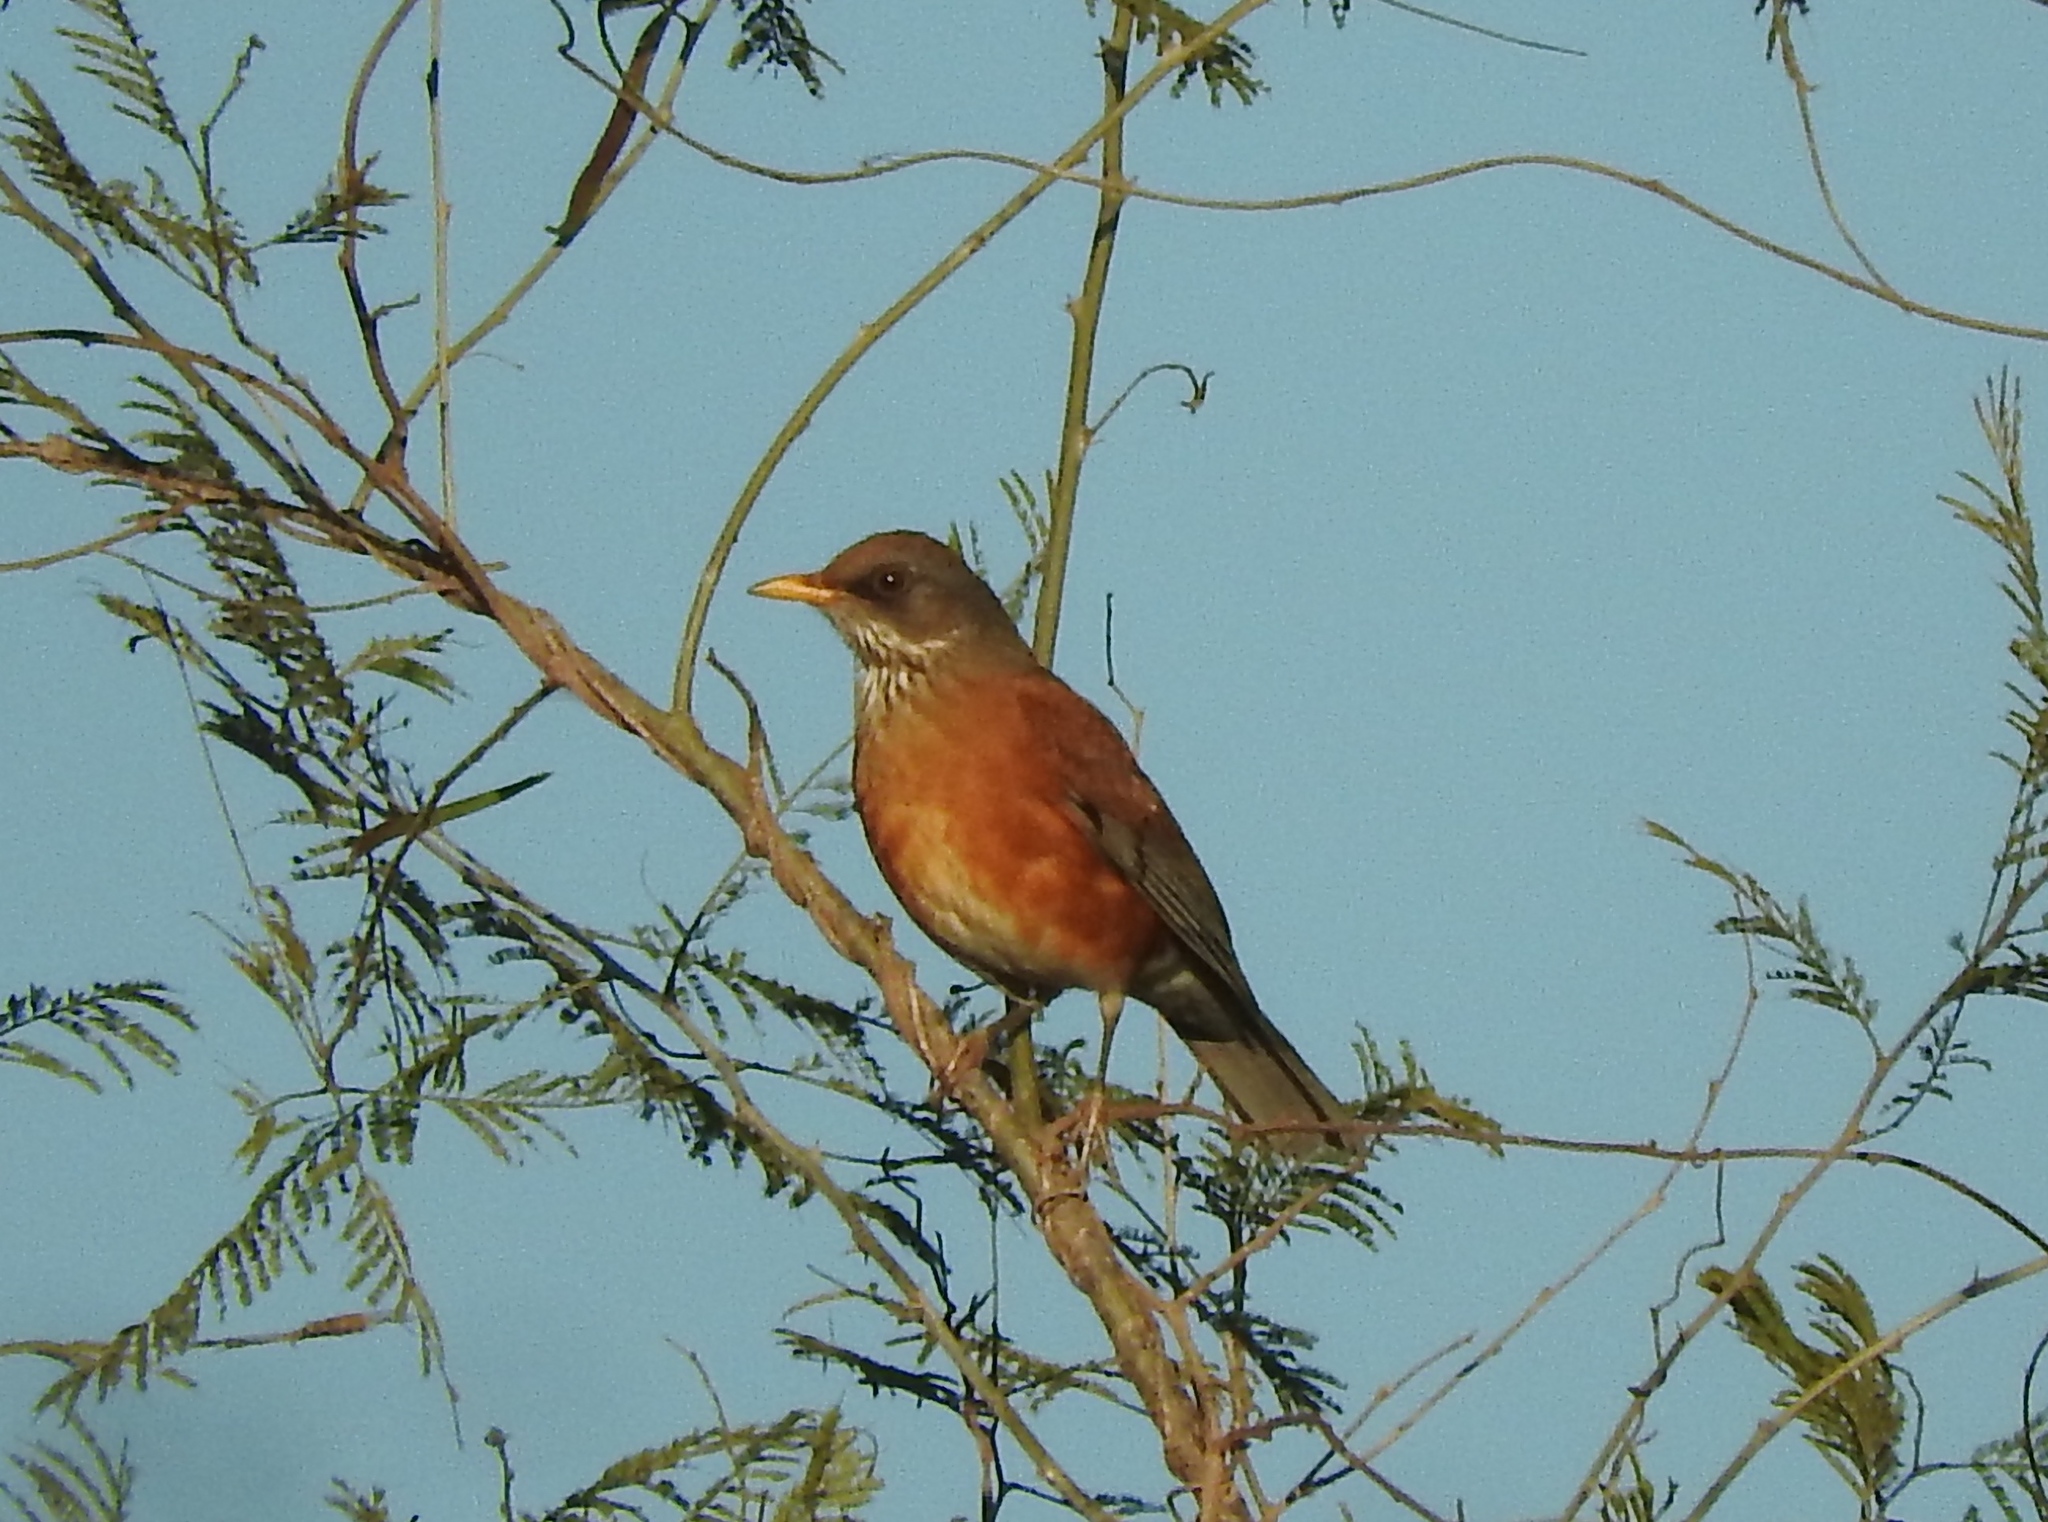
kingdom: Animalia
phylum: Chordata
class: Aves
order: Passeriformes
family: Turdidae
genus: Turdus
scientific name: Turdus rufopalliatus
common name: Rufous-backed robin
